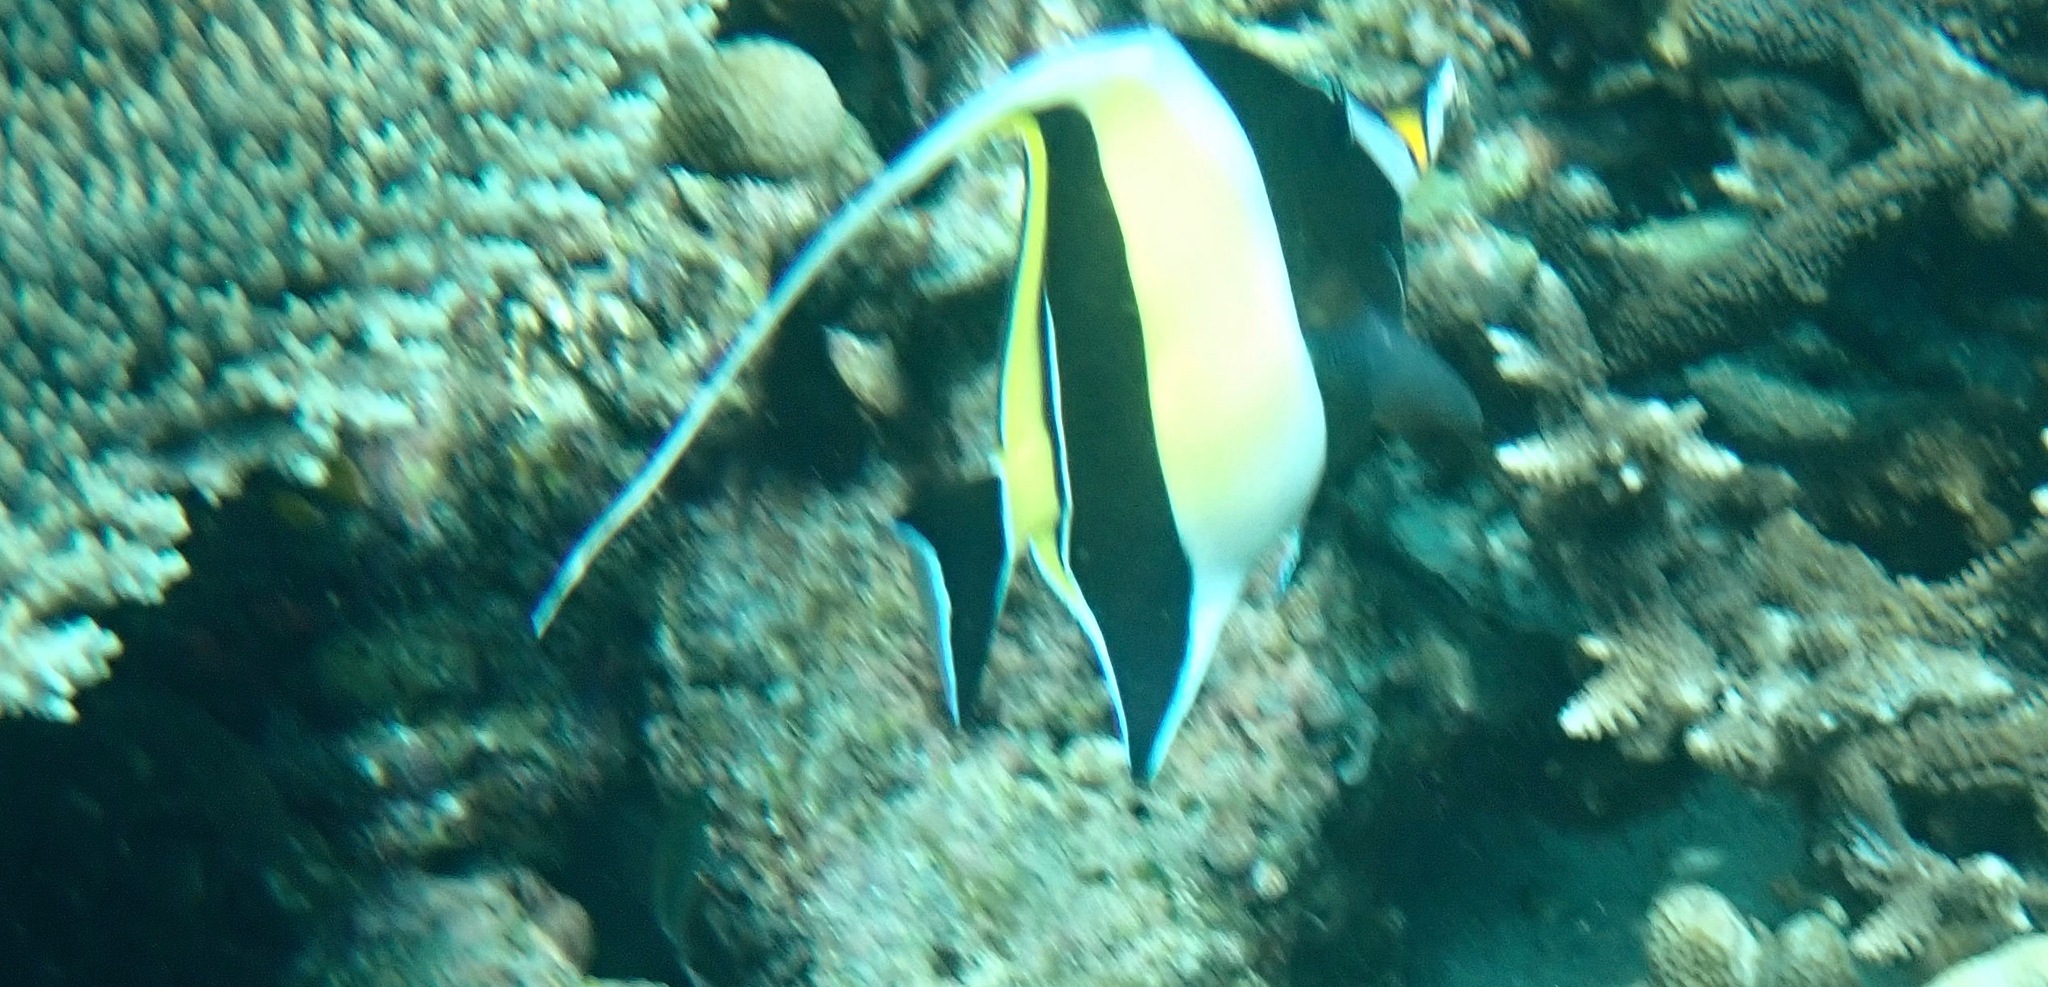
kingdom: Animalia
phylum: Chordata
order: Perciformes
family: Zanclidae
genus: Zanclus
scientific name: Zanclus cornutus
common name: Moorish idol
